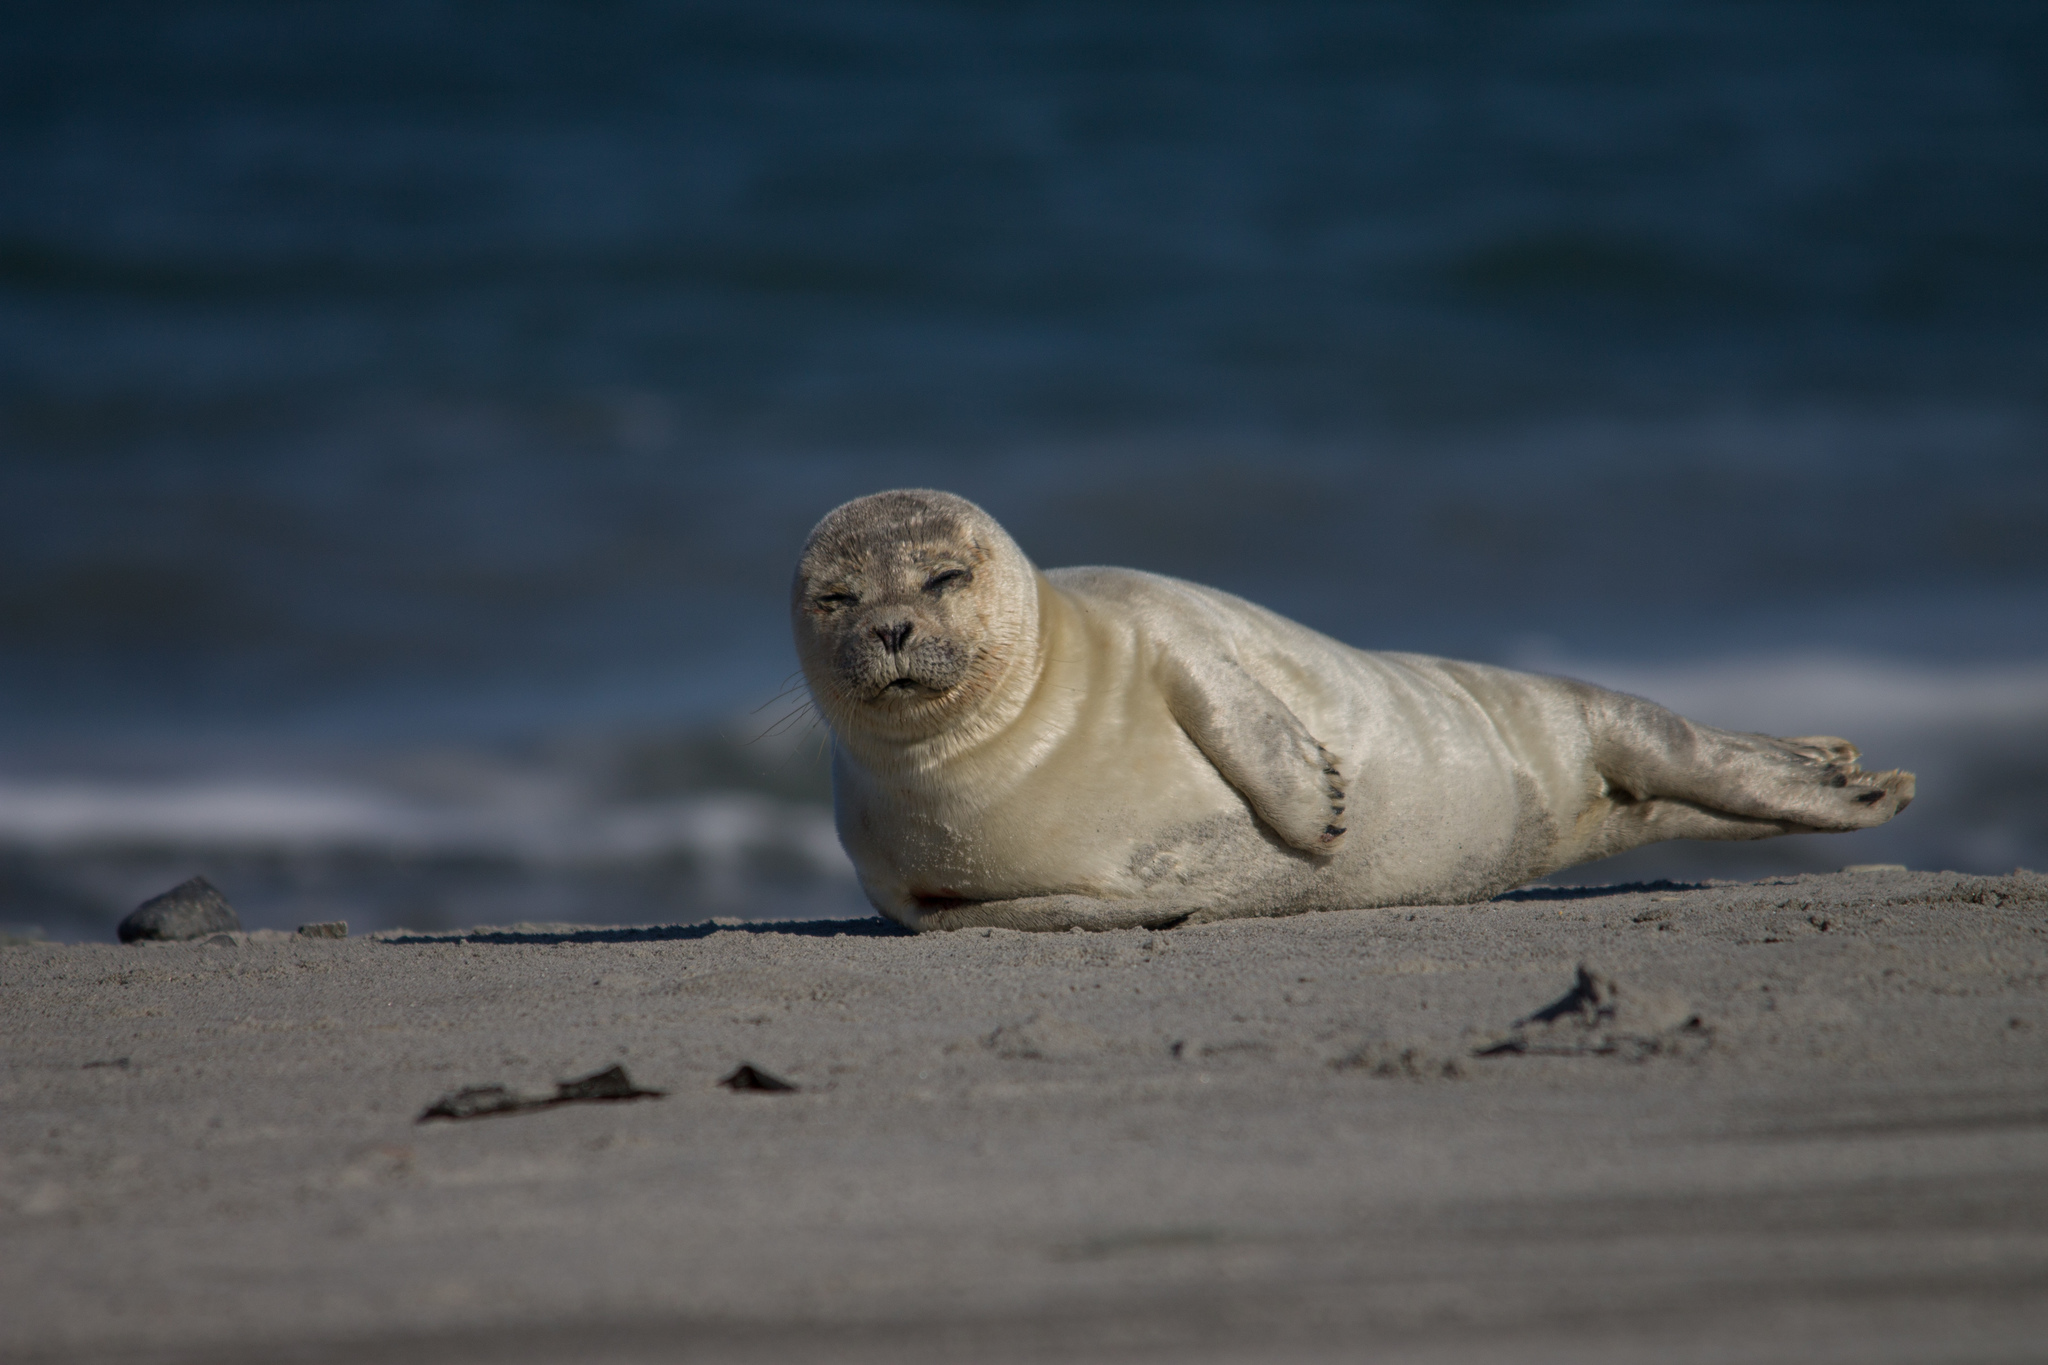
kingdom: Animalia
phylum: Chordata
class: Mammalia
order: Carnivora
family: Phocidae
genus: Phoca
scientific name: Phoca vitulina
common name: Harbor seal
